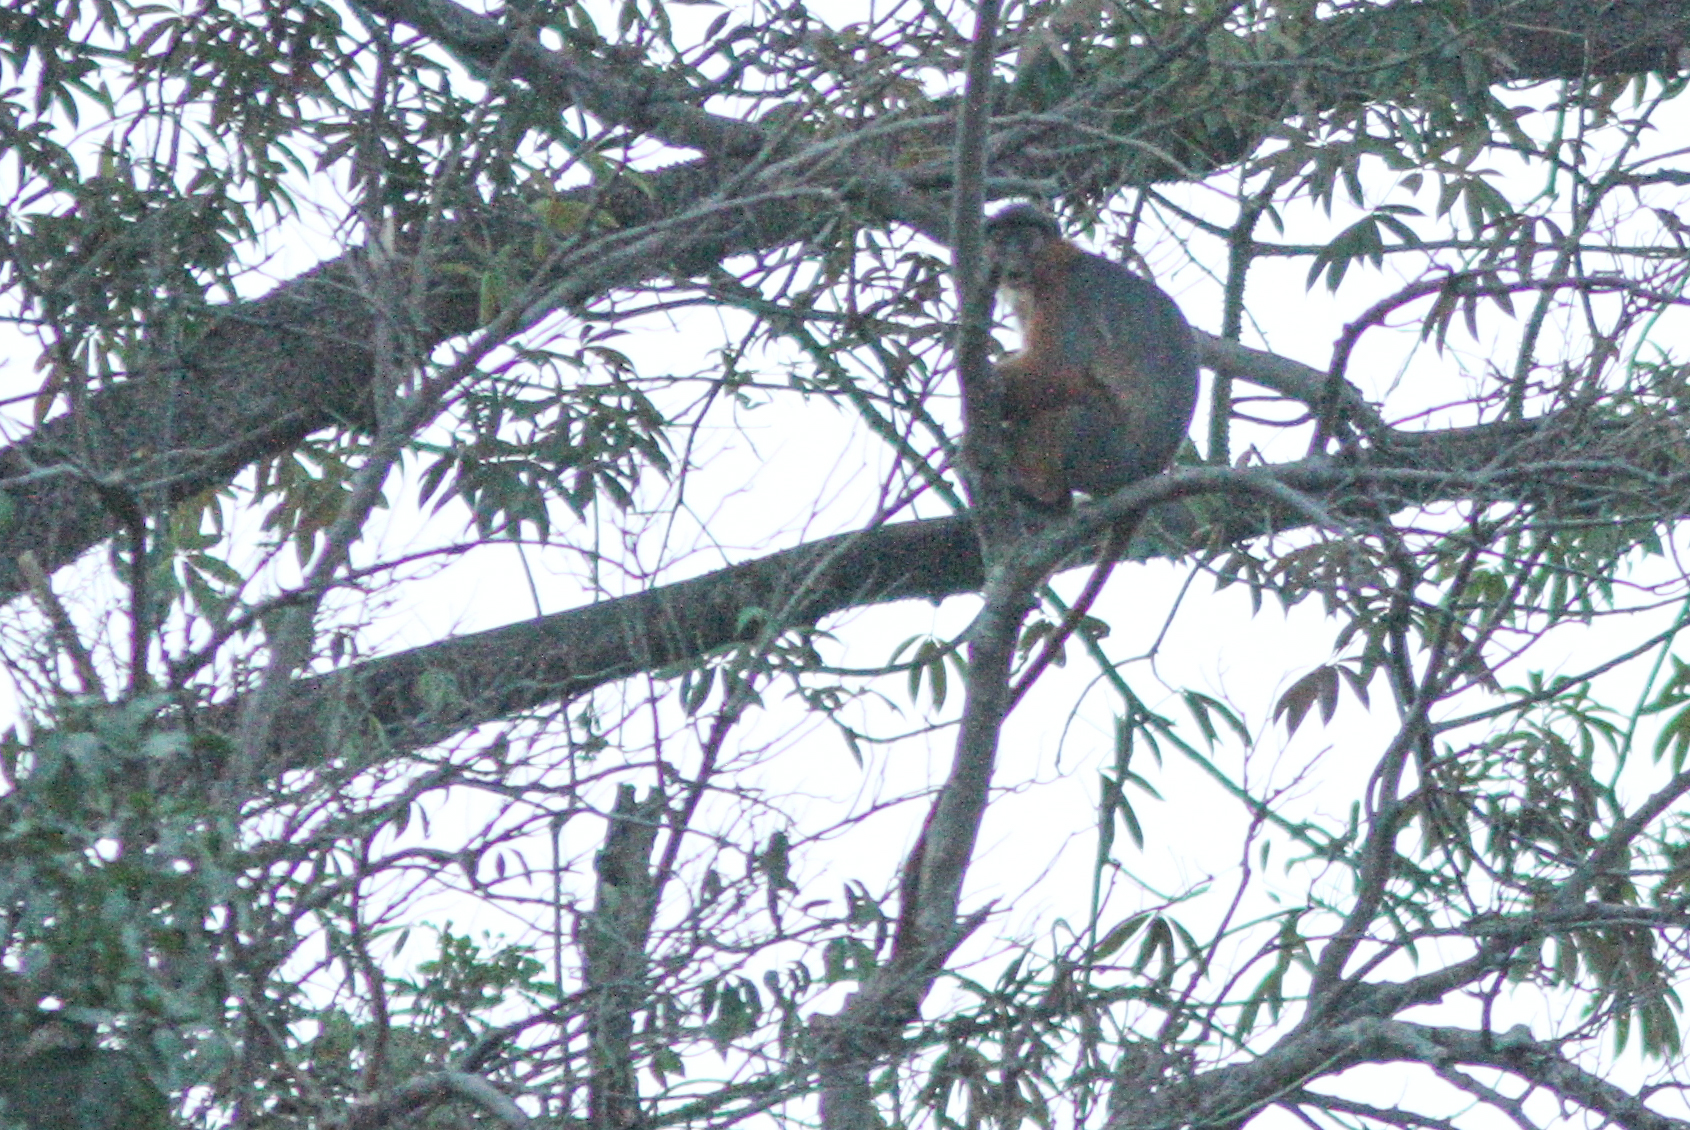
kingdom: Animalia
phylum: Chordata
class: Mammalia
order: Primates
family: Cercopithecidae
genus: Piliocolobus
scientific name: Piliocolobus badius
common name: Western red colobus
